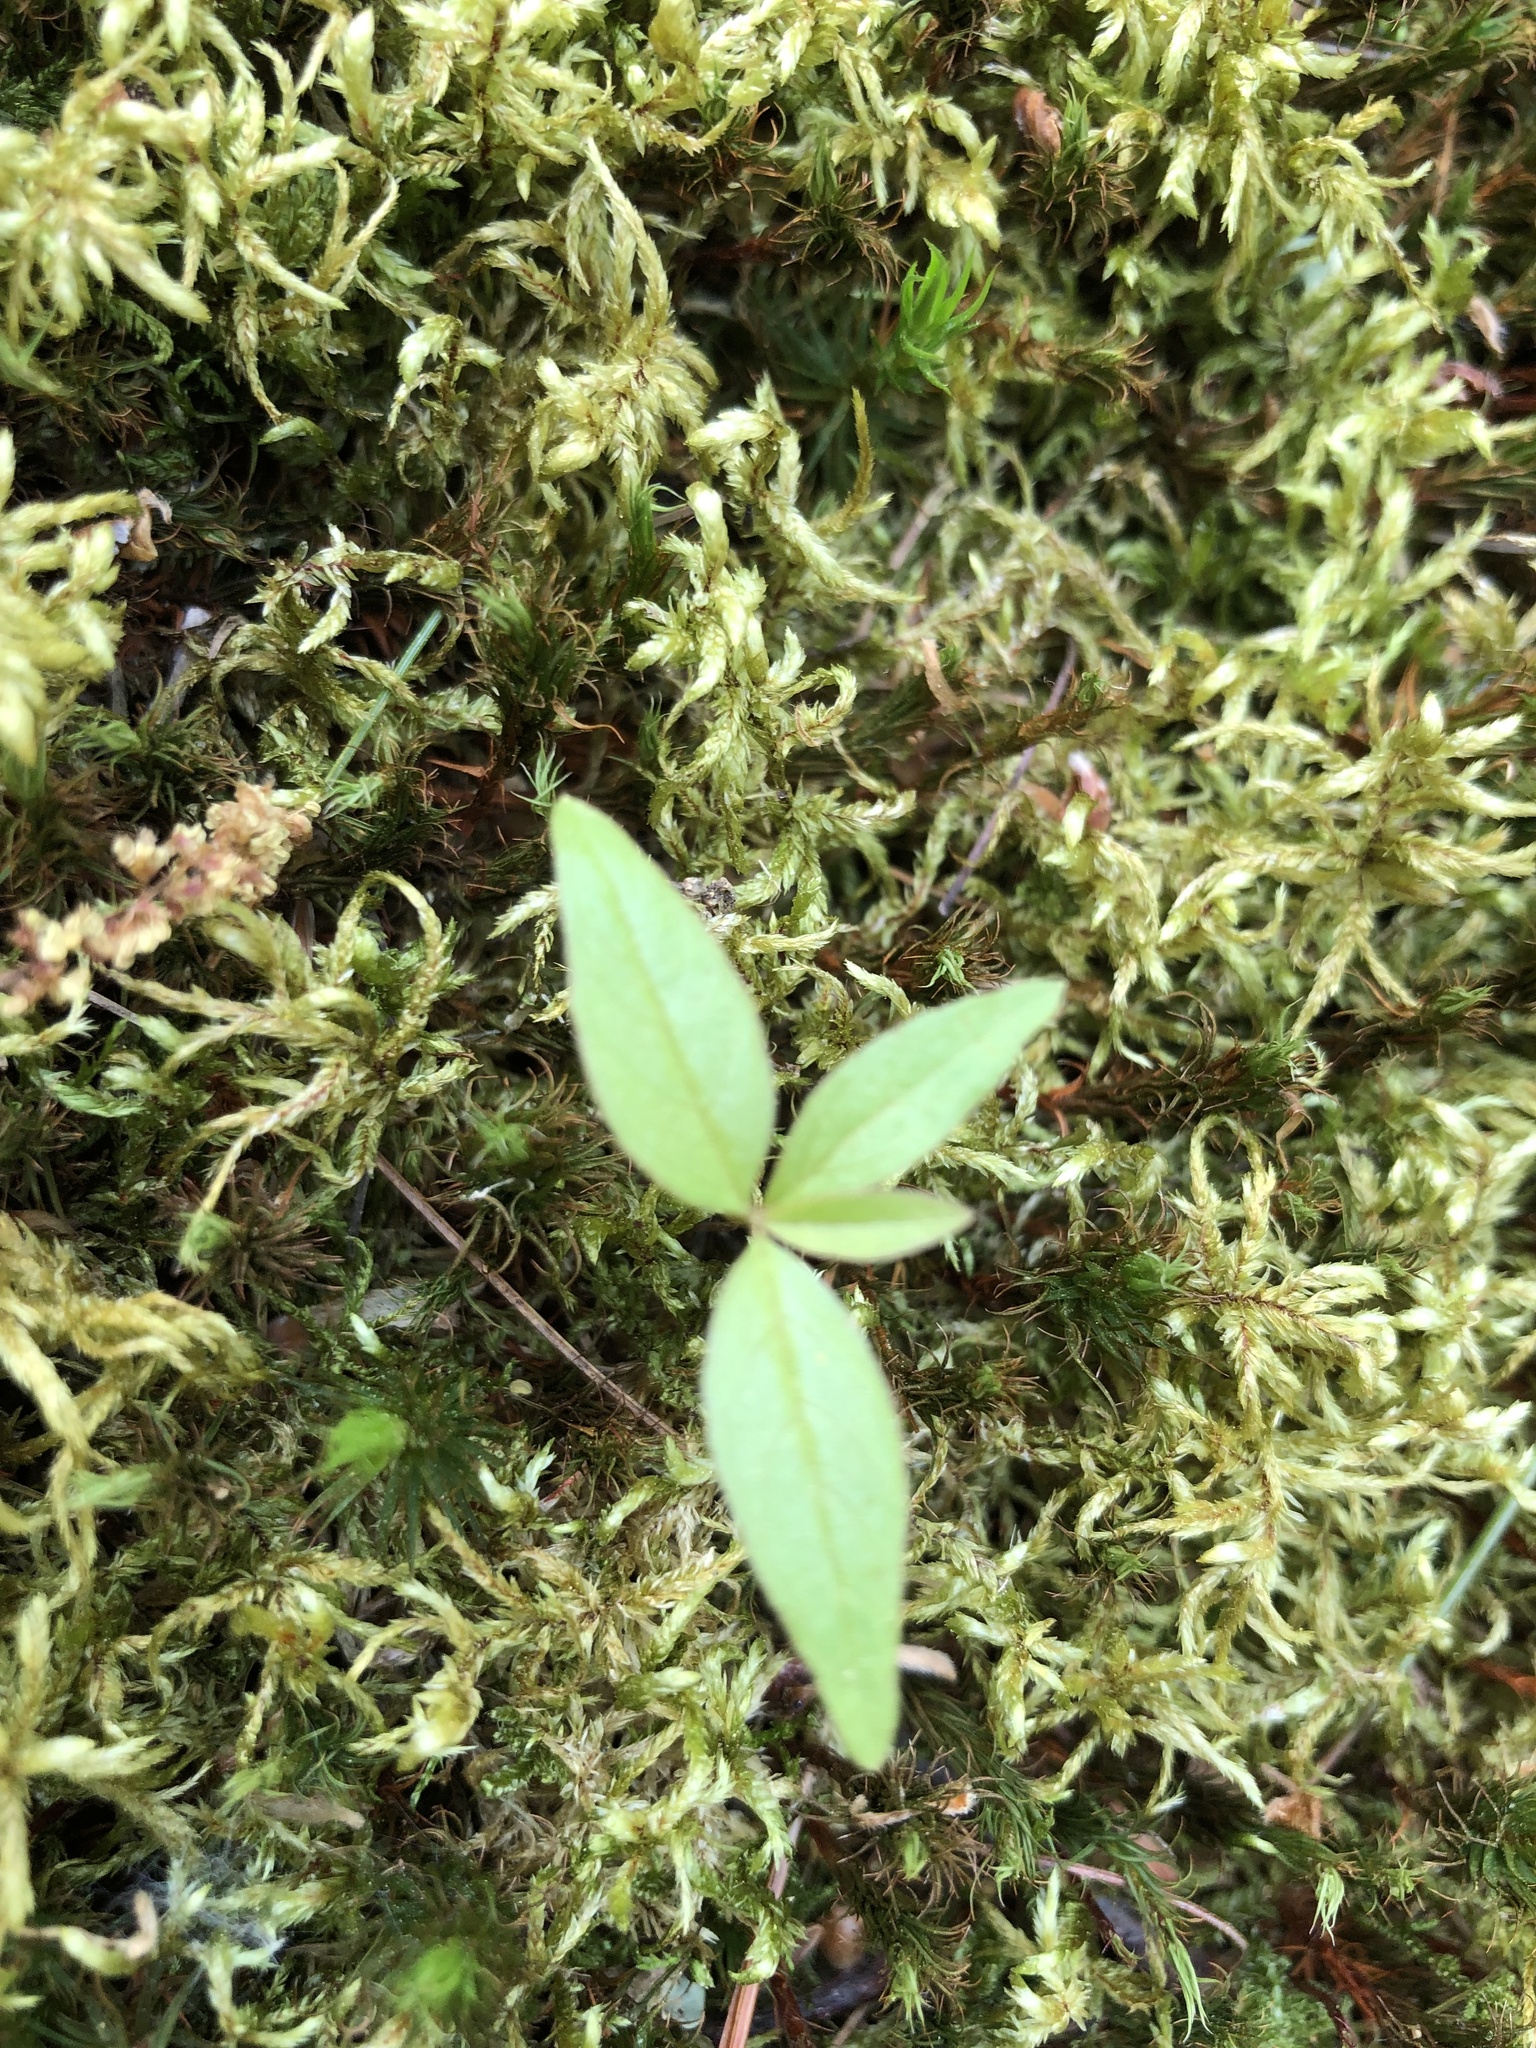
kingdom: Plantae
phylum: Tracheophyta
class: Magnoliopsida
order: Ericales
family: Primulaceae
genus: Lysimachia
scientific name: Lysimachia borealis
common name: American starflower
